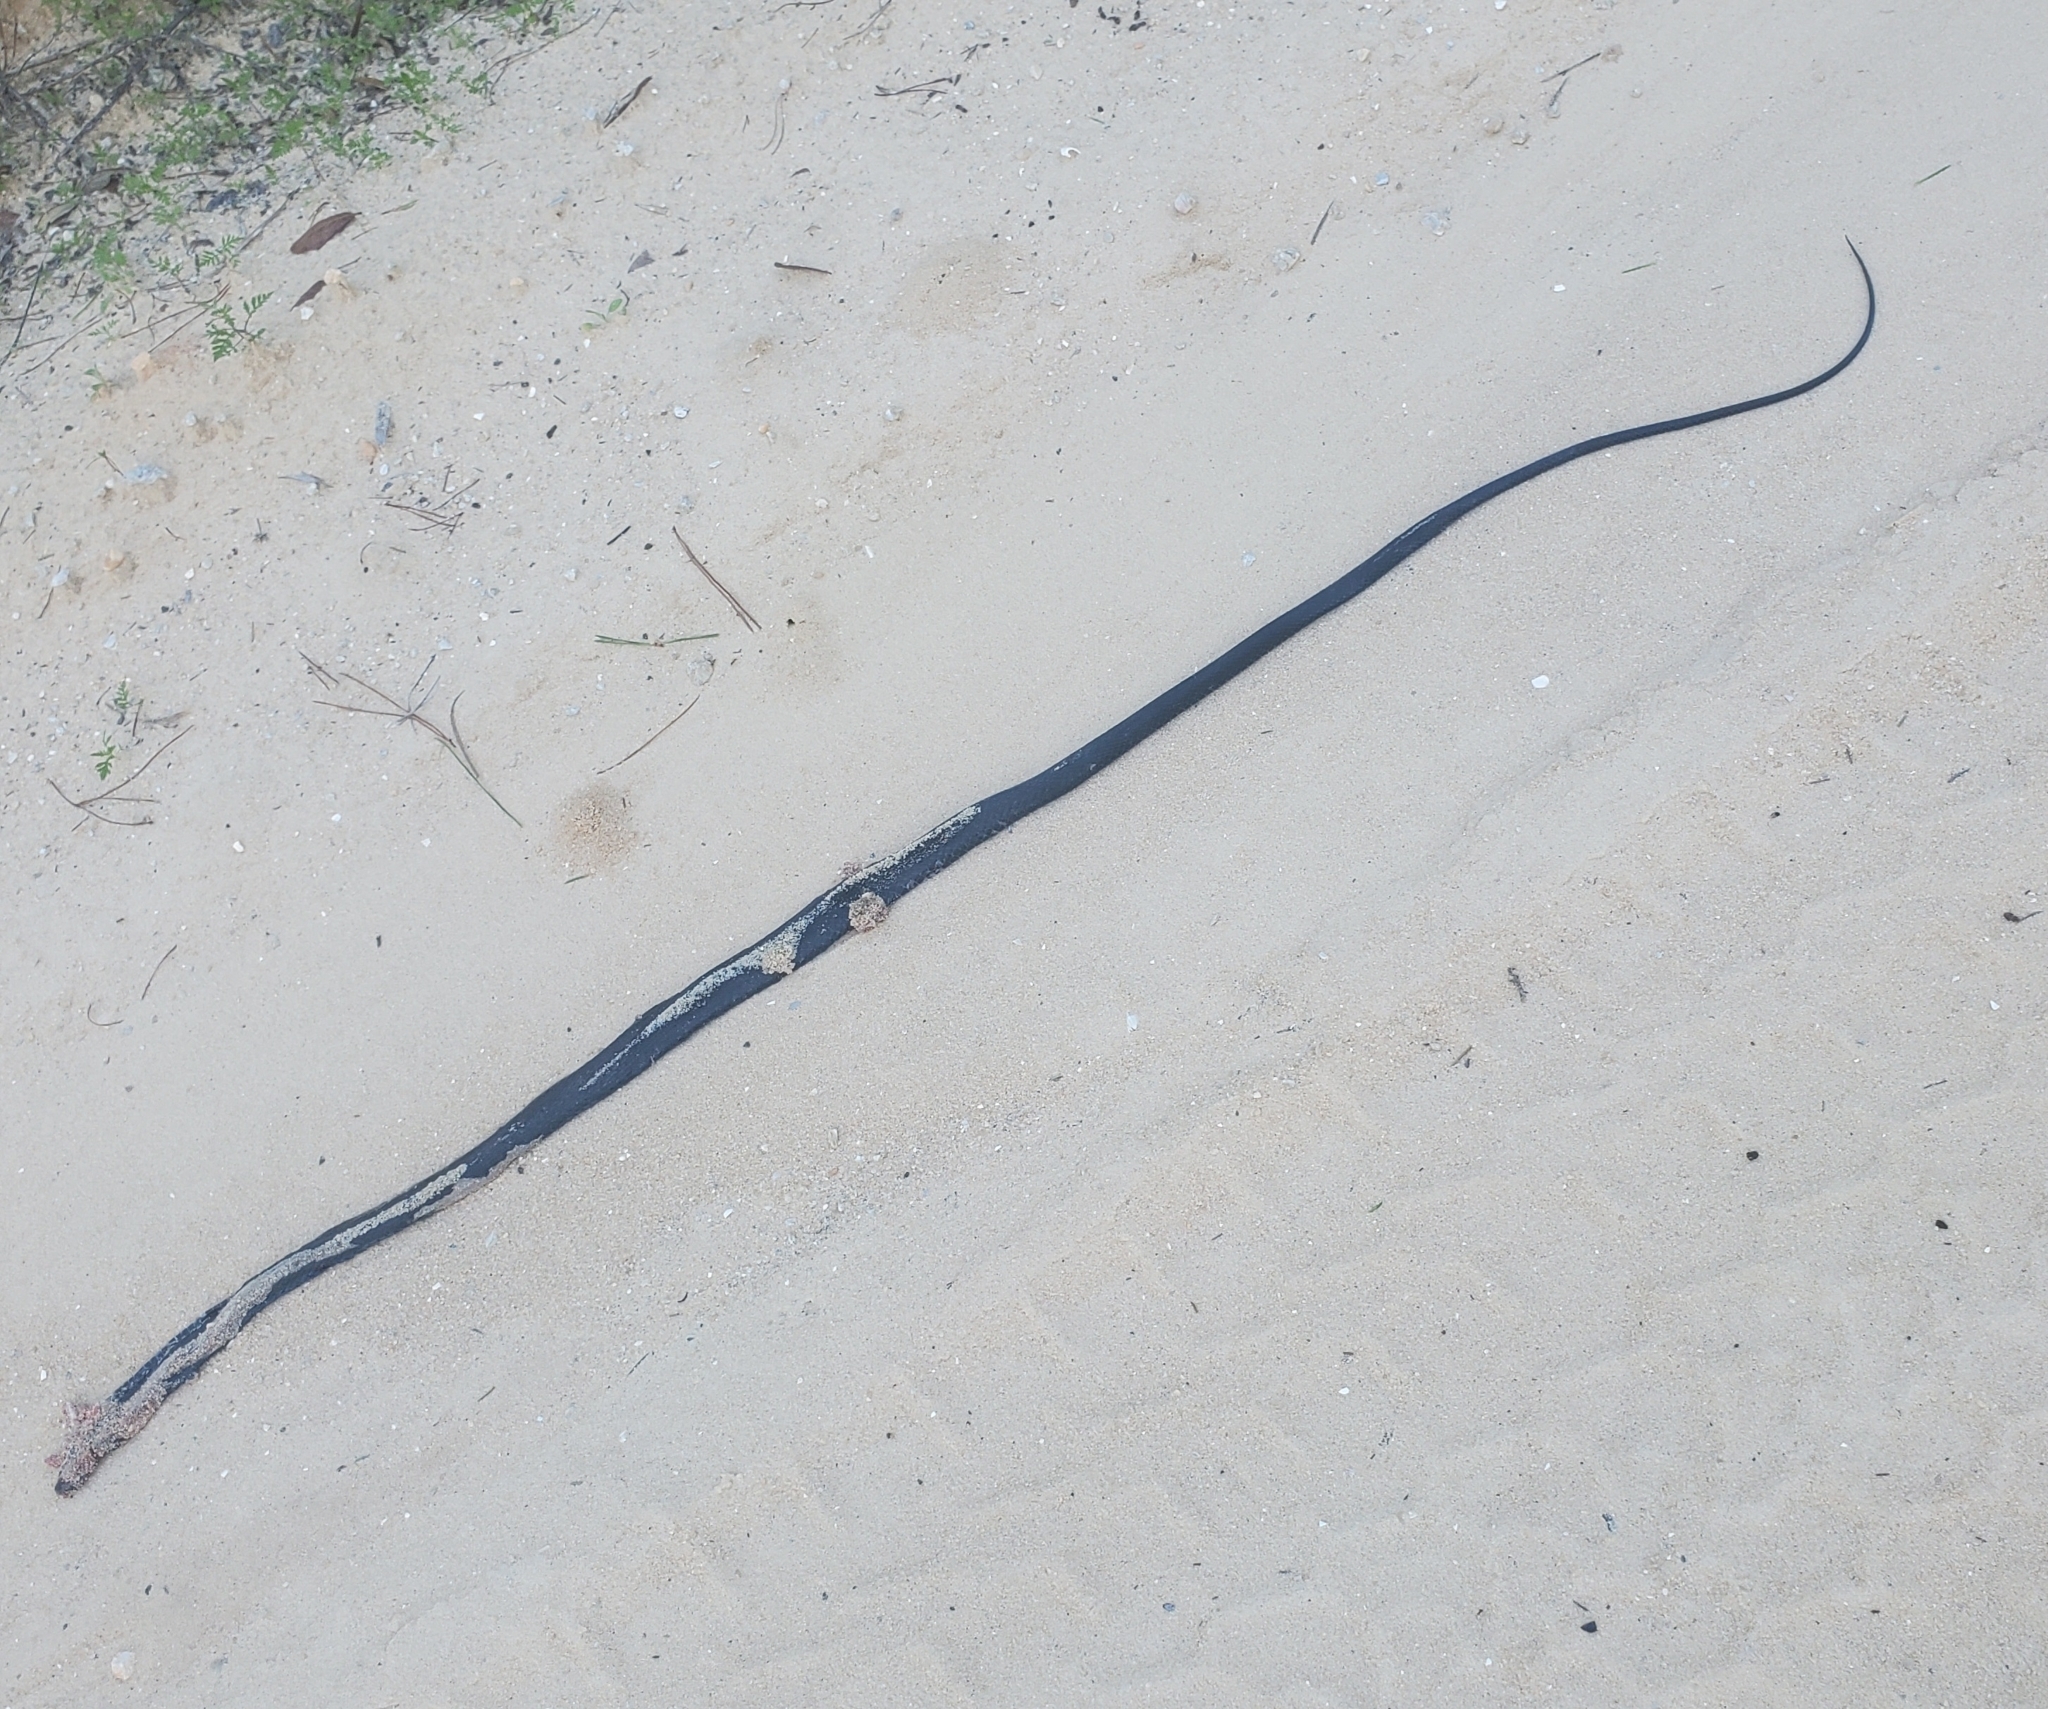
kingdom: Animalia
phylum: Chordata
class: Squamata
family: Colubridae
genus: Coluber
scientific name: Coluber constrictor
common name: Eastern racer
